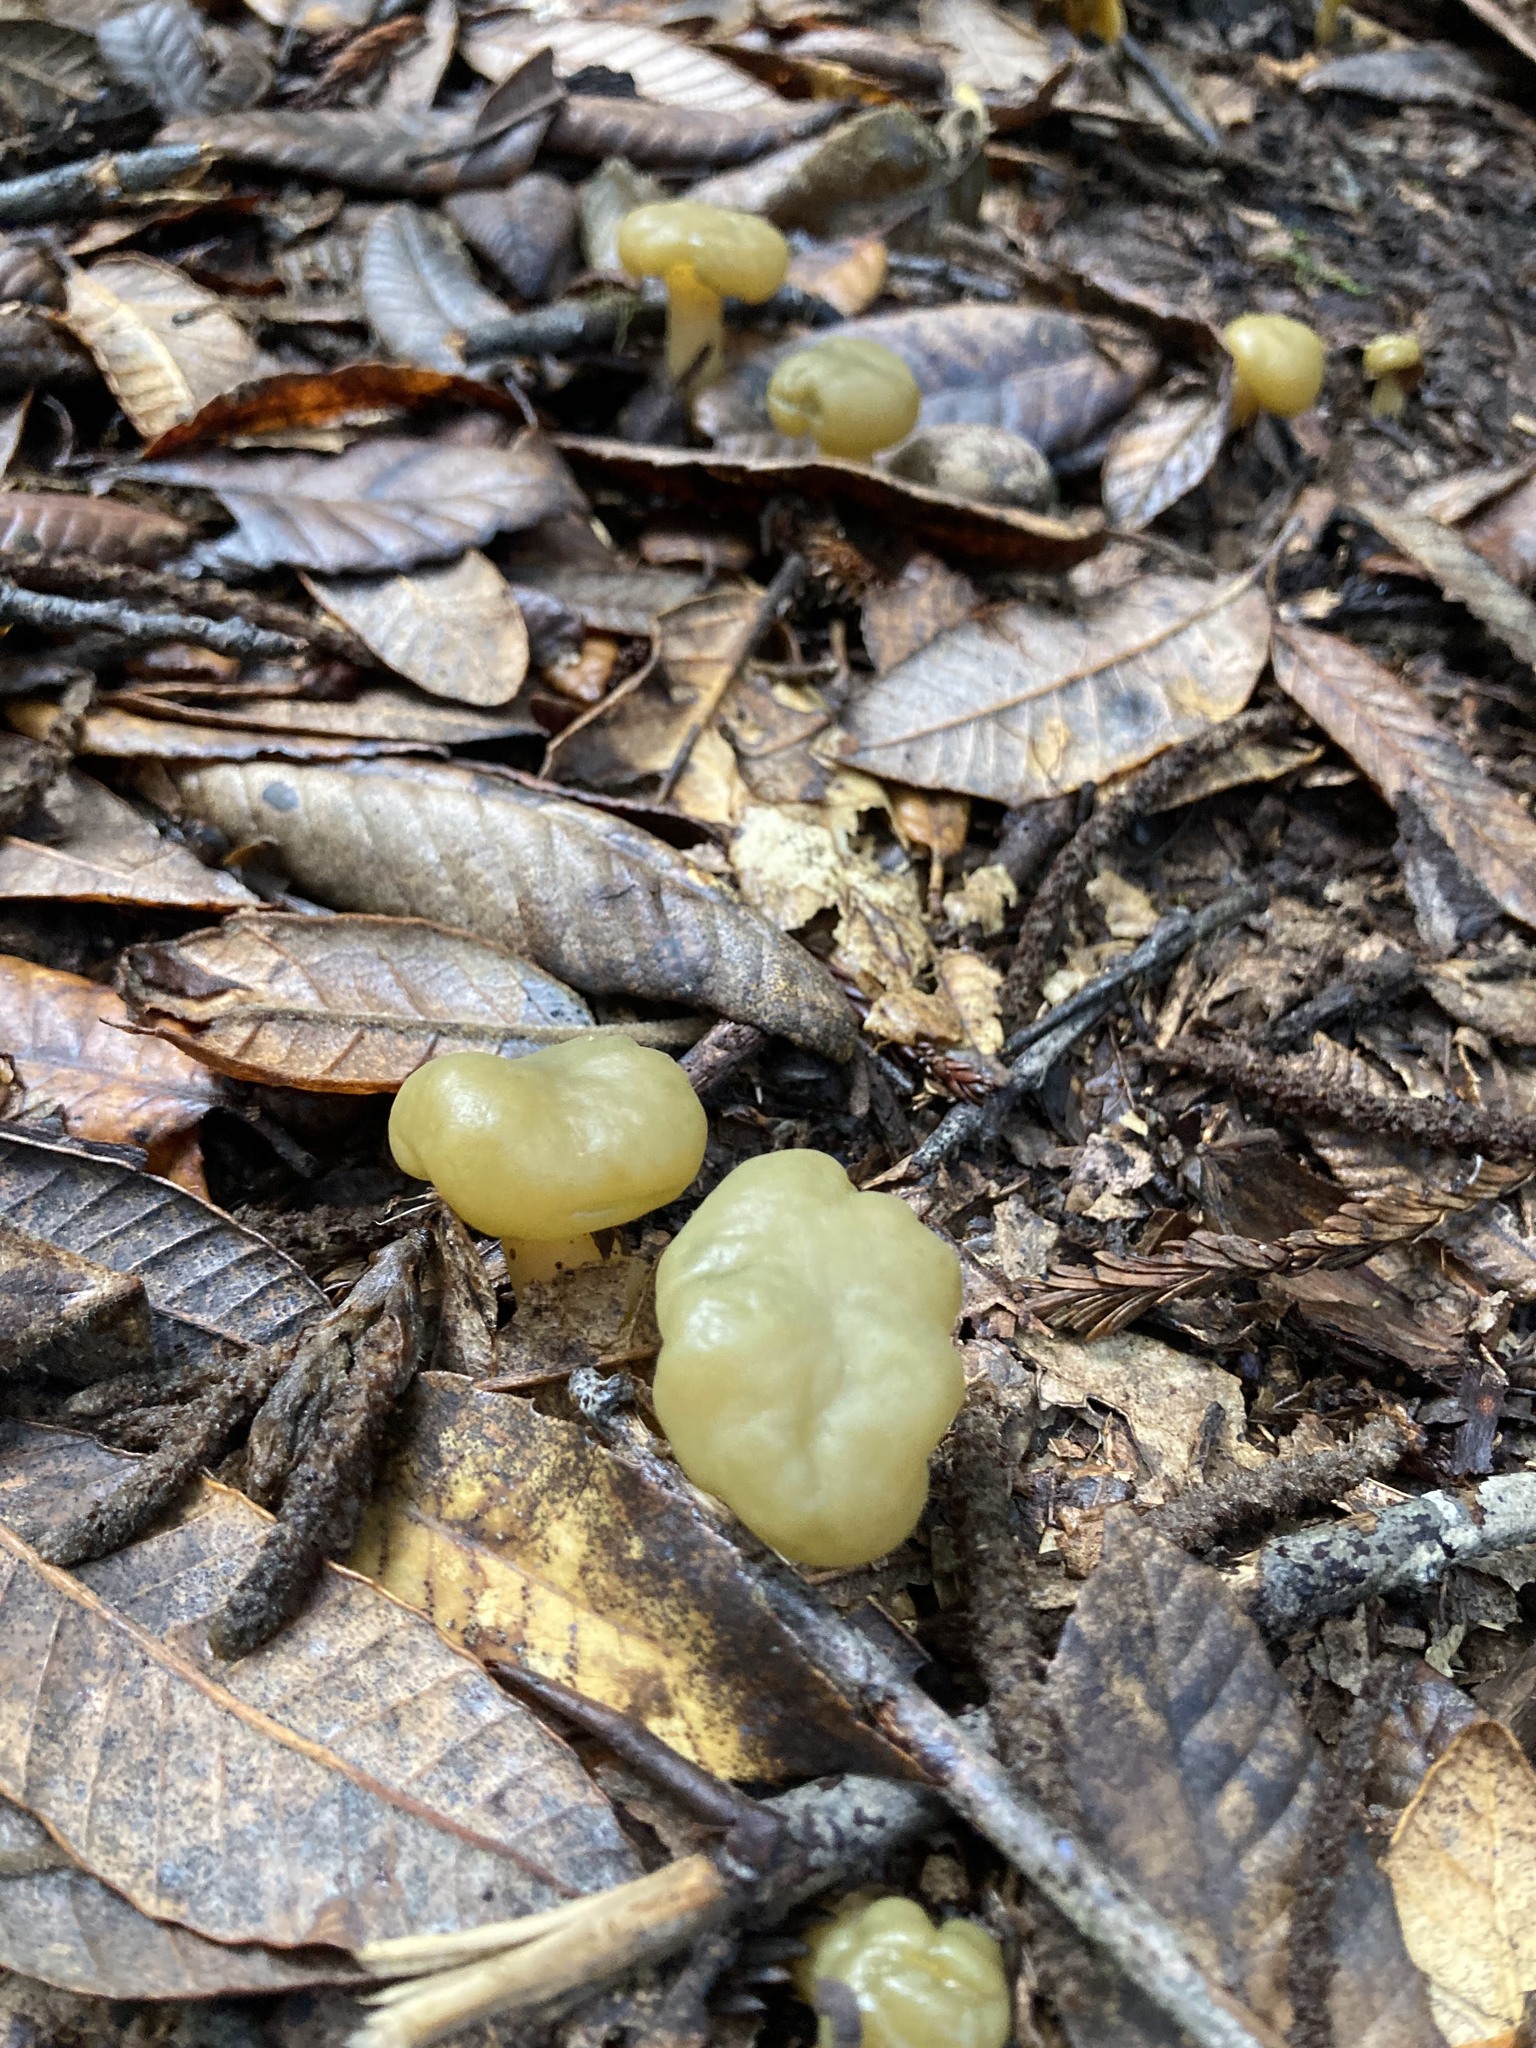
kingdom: Fungi
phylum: Ascomycota
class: Leotiomycetes
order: Leotiales
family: Leotiaceae
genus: Leotia
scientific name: Leotia lubrica
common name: Jellybaby
